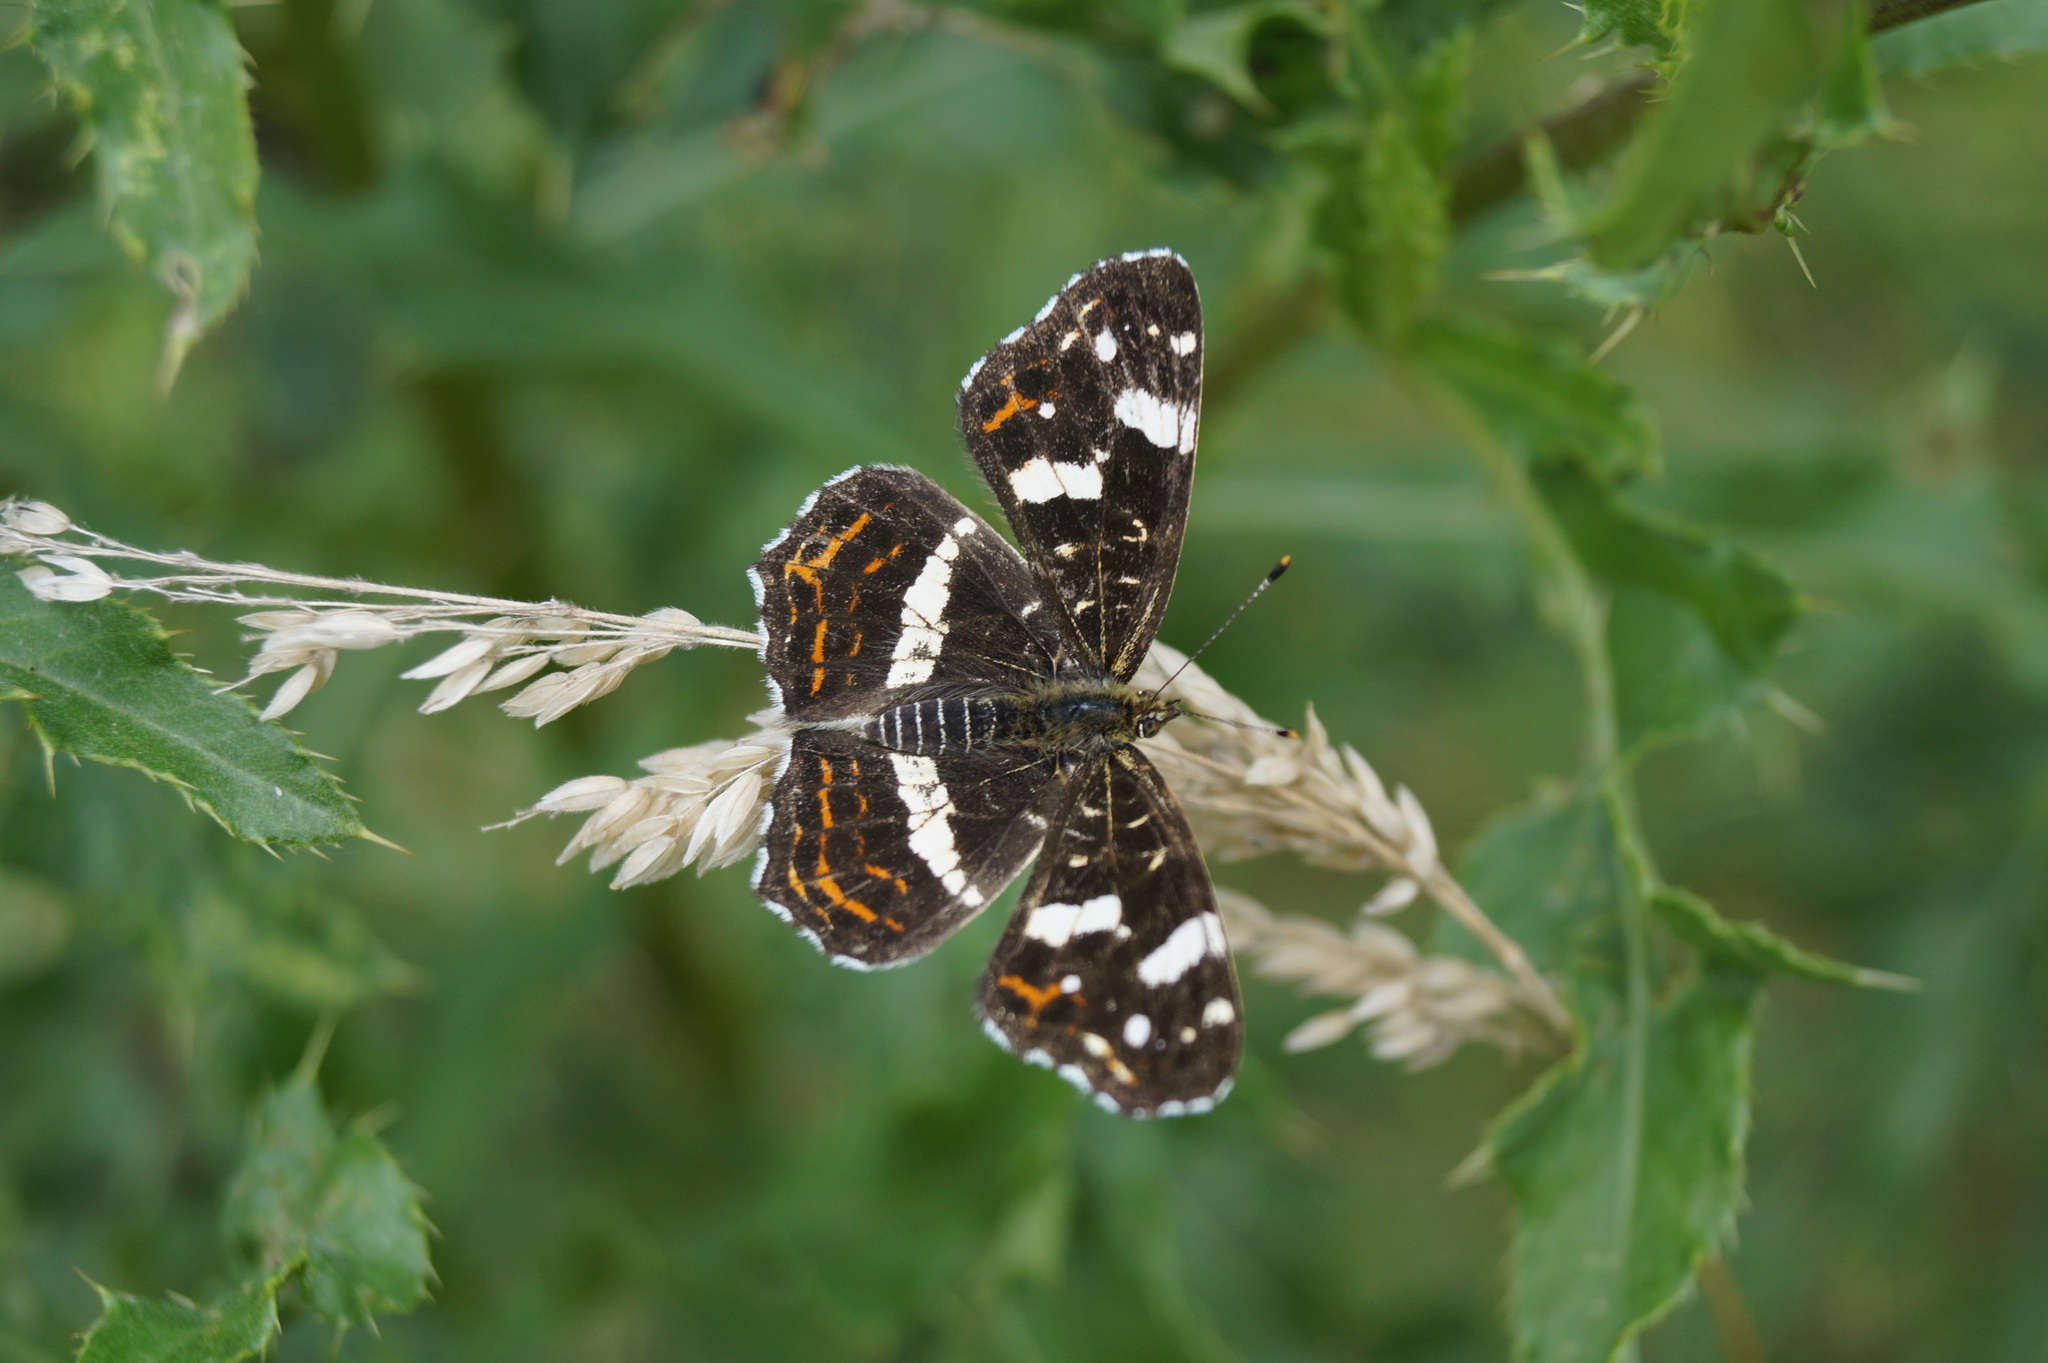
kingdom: Animalia
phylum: Arthropoda
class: Insecta
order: Lepidoptera
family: Nymphalidae
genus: Araschnia
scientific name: Araschnia levana
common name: Map butterfly
